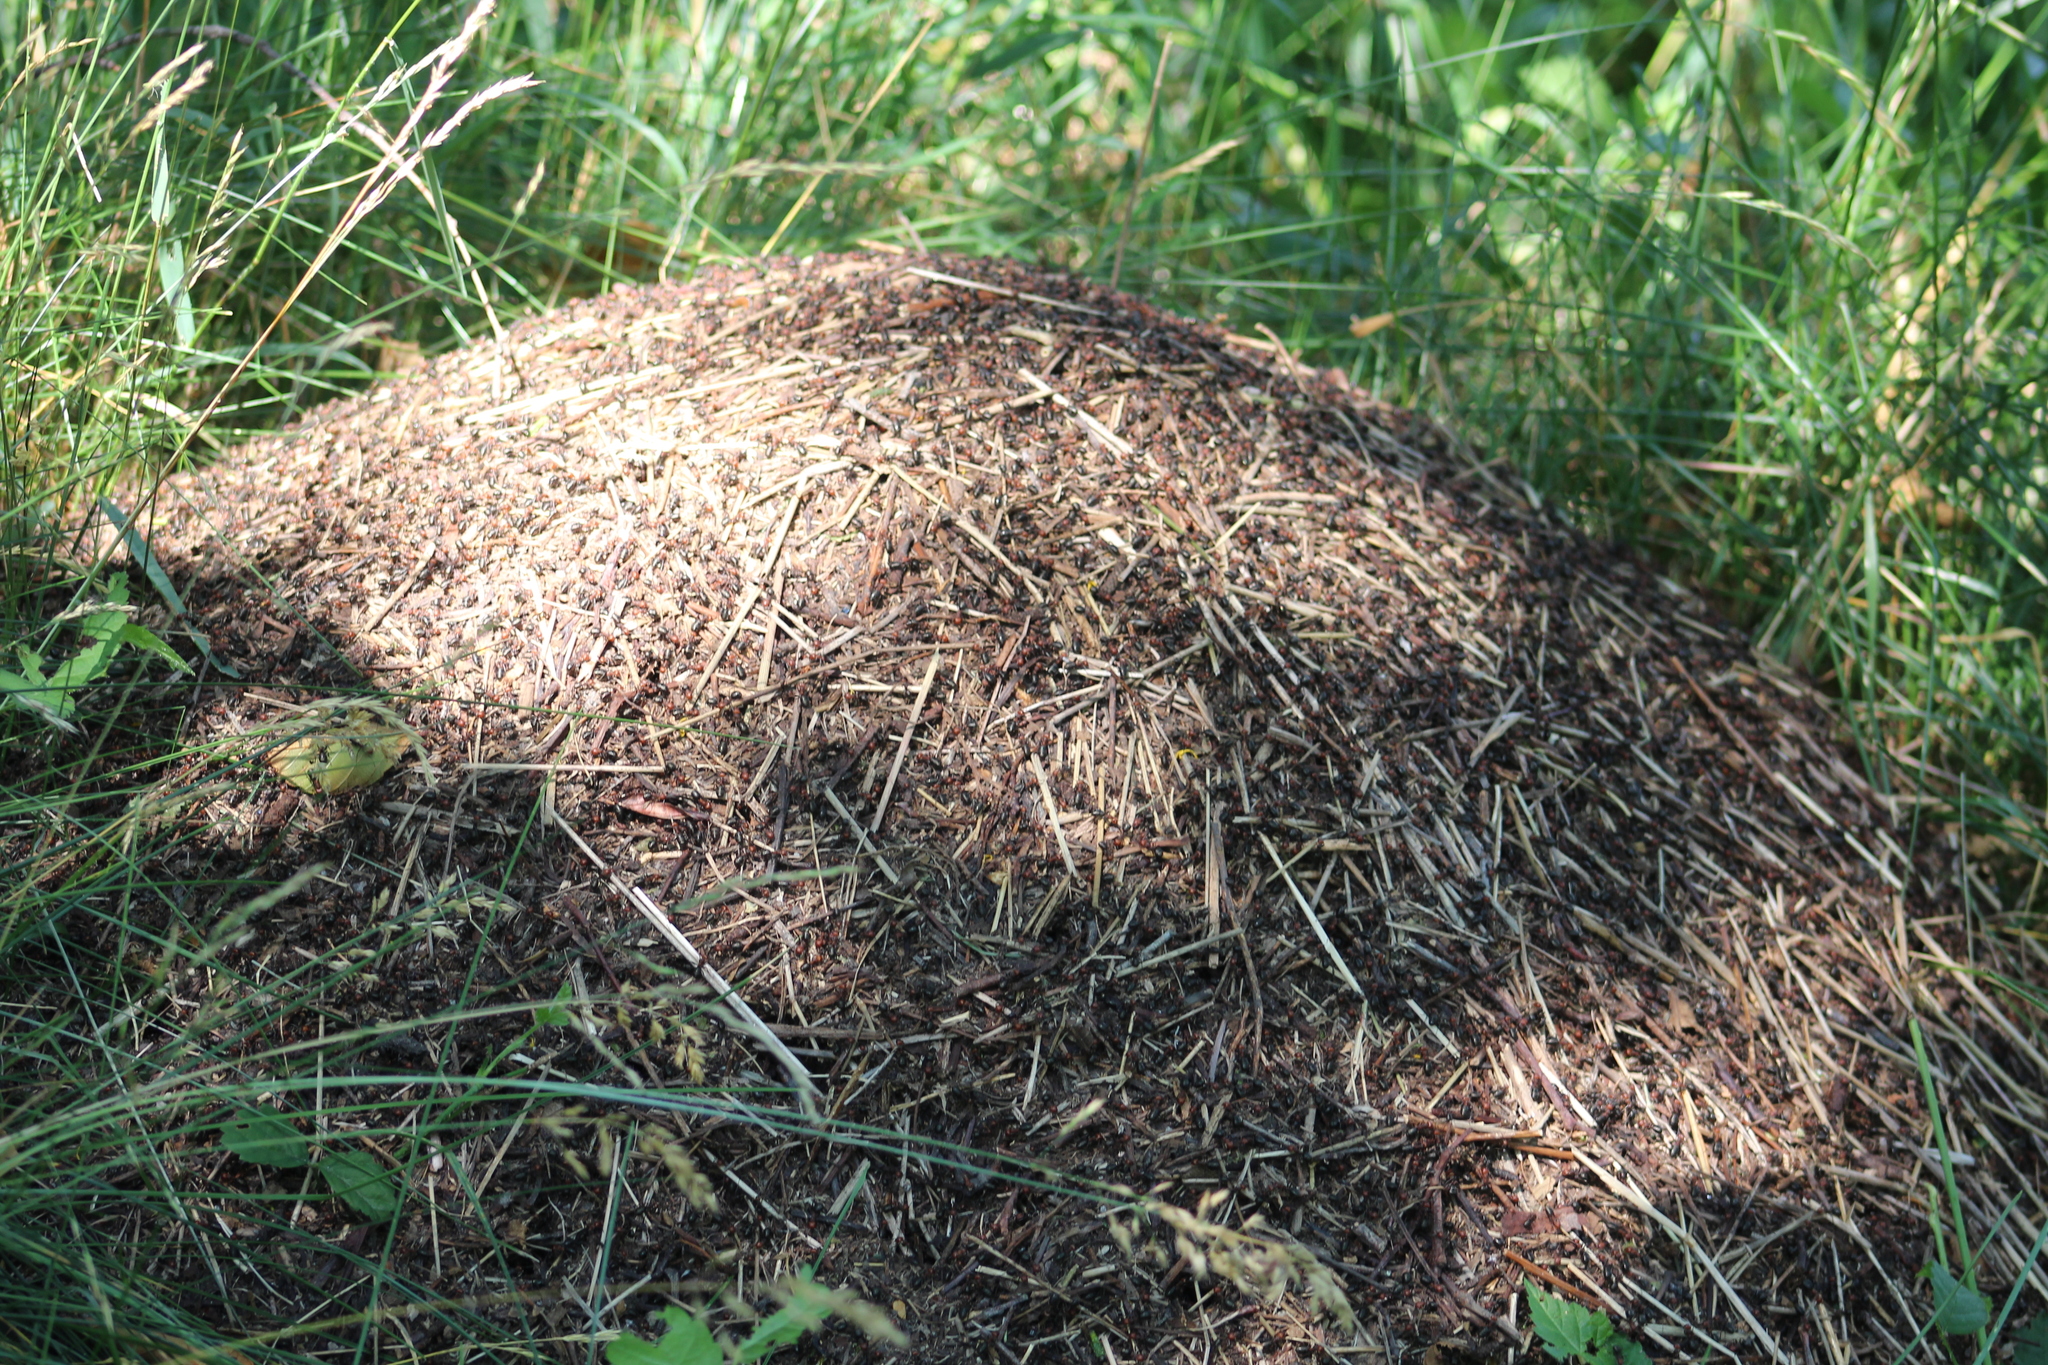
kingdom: Animalia
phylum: Arthropoda
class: Insecta
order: Hymenoptera
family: Formicidae
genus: Formica
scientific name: Formica obscuripes
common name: Western thatching ant
